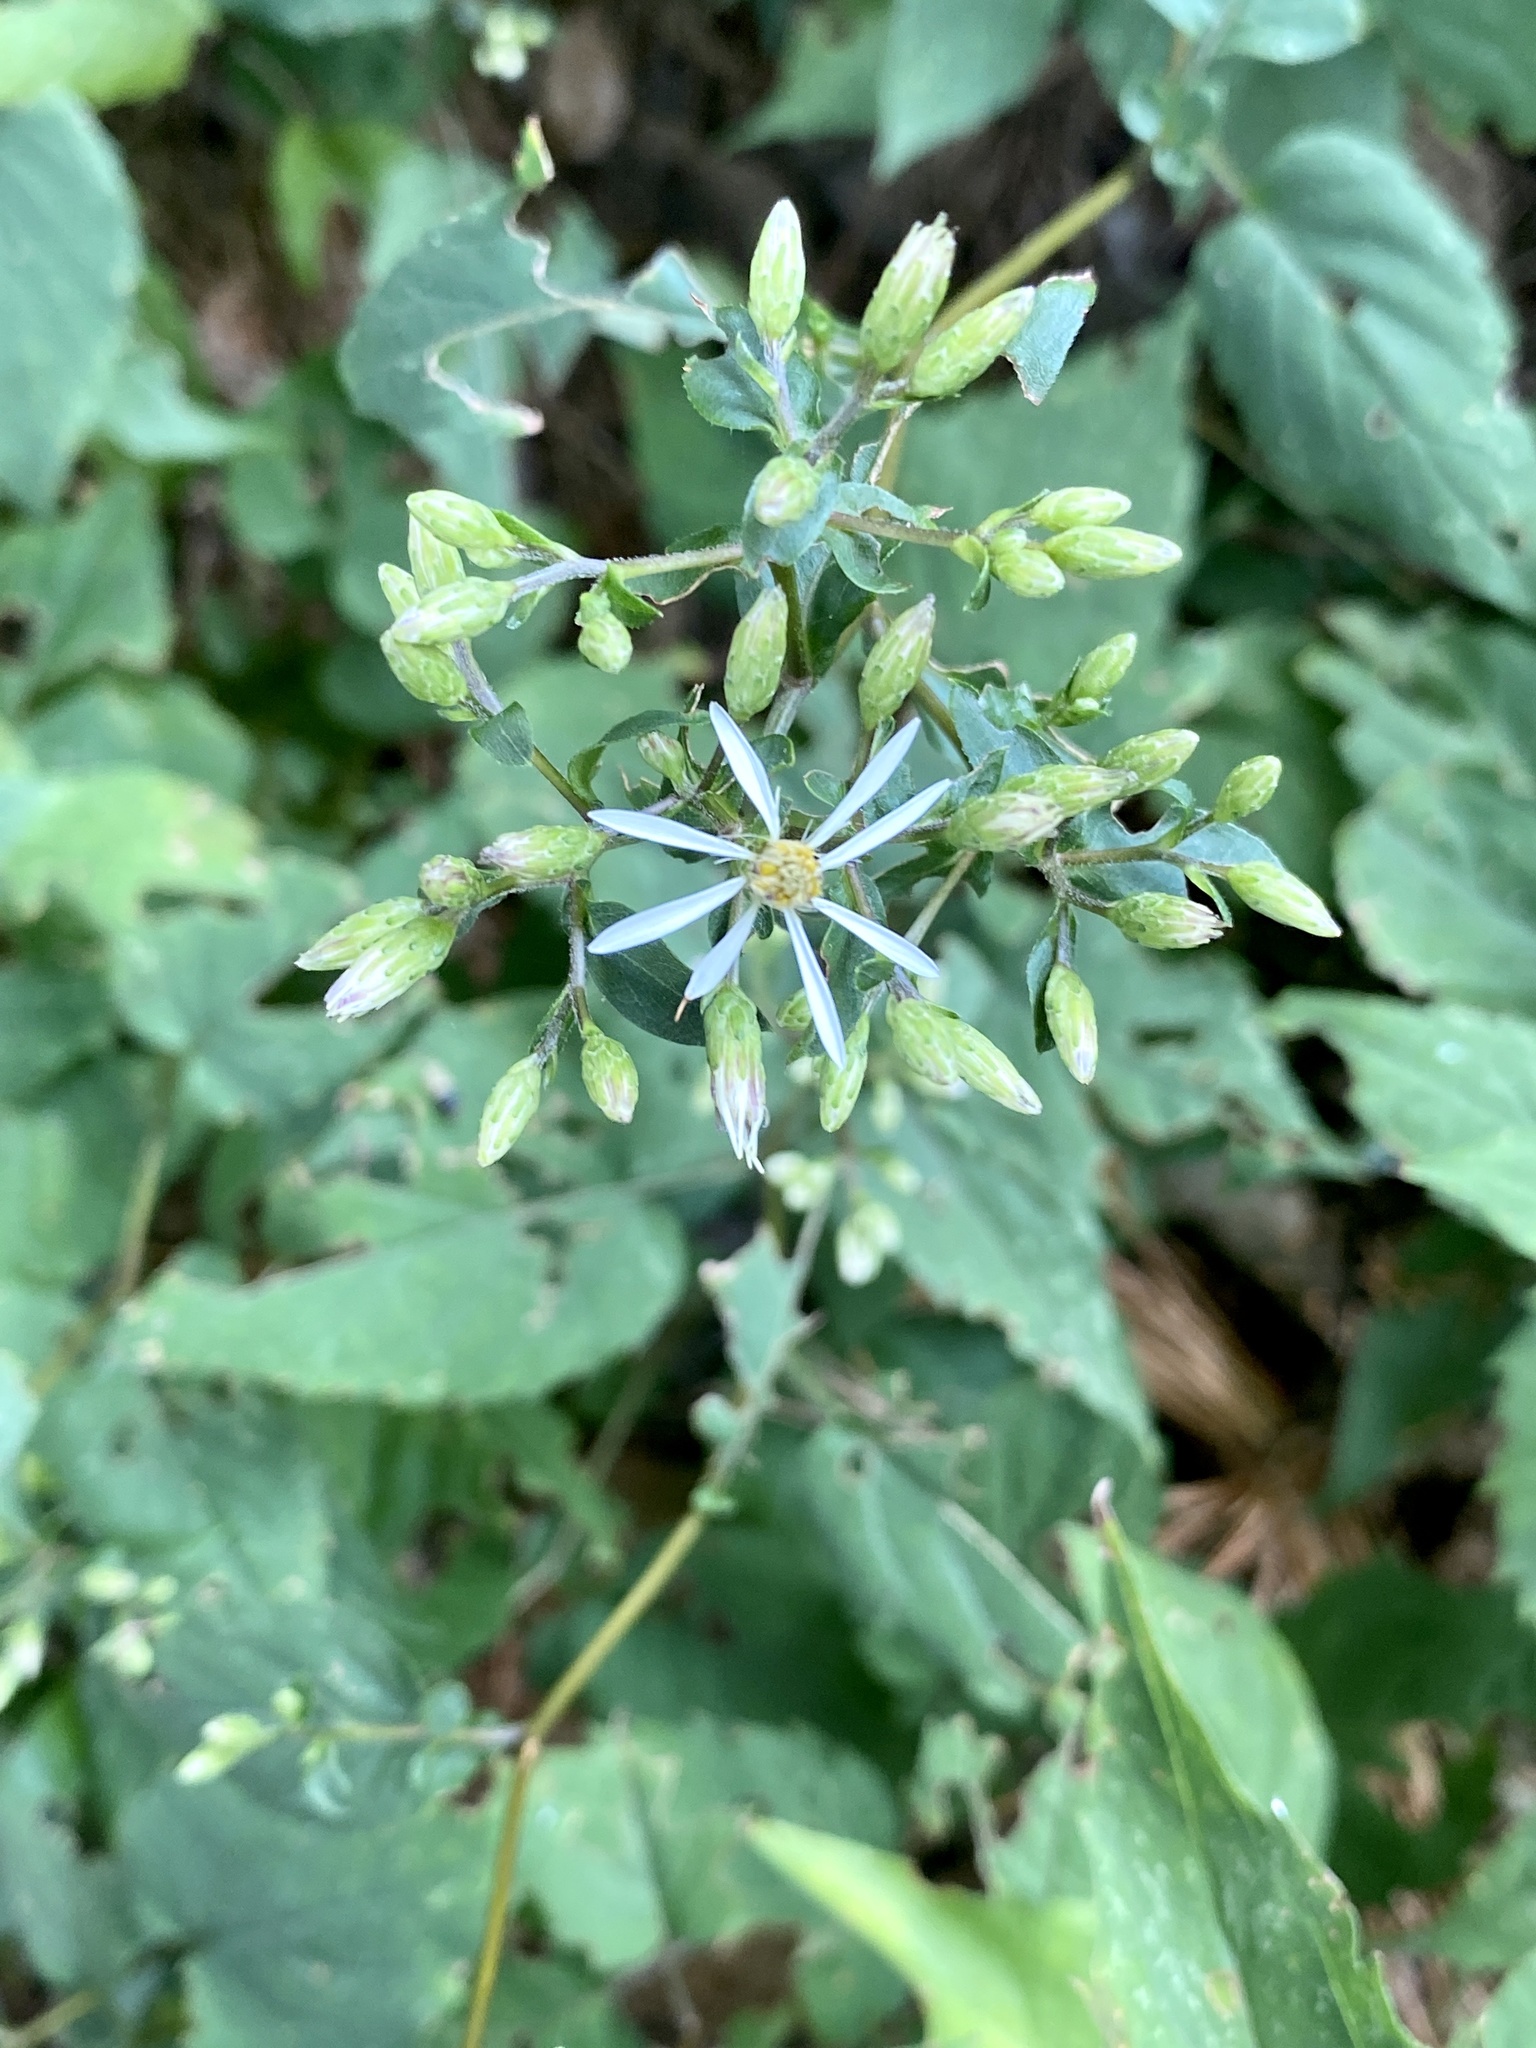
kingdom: Plantae
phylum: Tracheophyta
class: Magnoliopsida
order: Asterales
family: Asteraceae
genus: Eurybia
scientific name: Eurybia divaricata
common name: White wood aster
